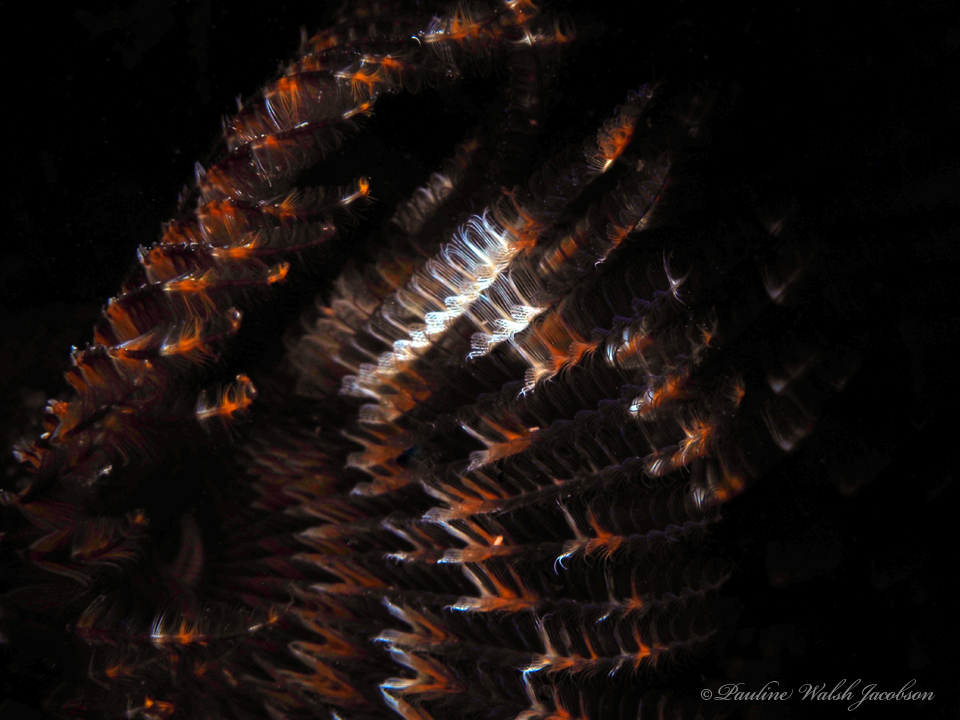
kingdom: Animalia
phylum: Annelida
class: Polychaeta
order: Sabellida
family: Sabellidae
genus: Branchiomma
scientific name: Branchiomma nigromaculatum
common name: Black-spotted feather duster
